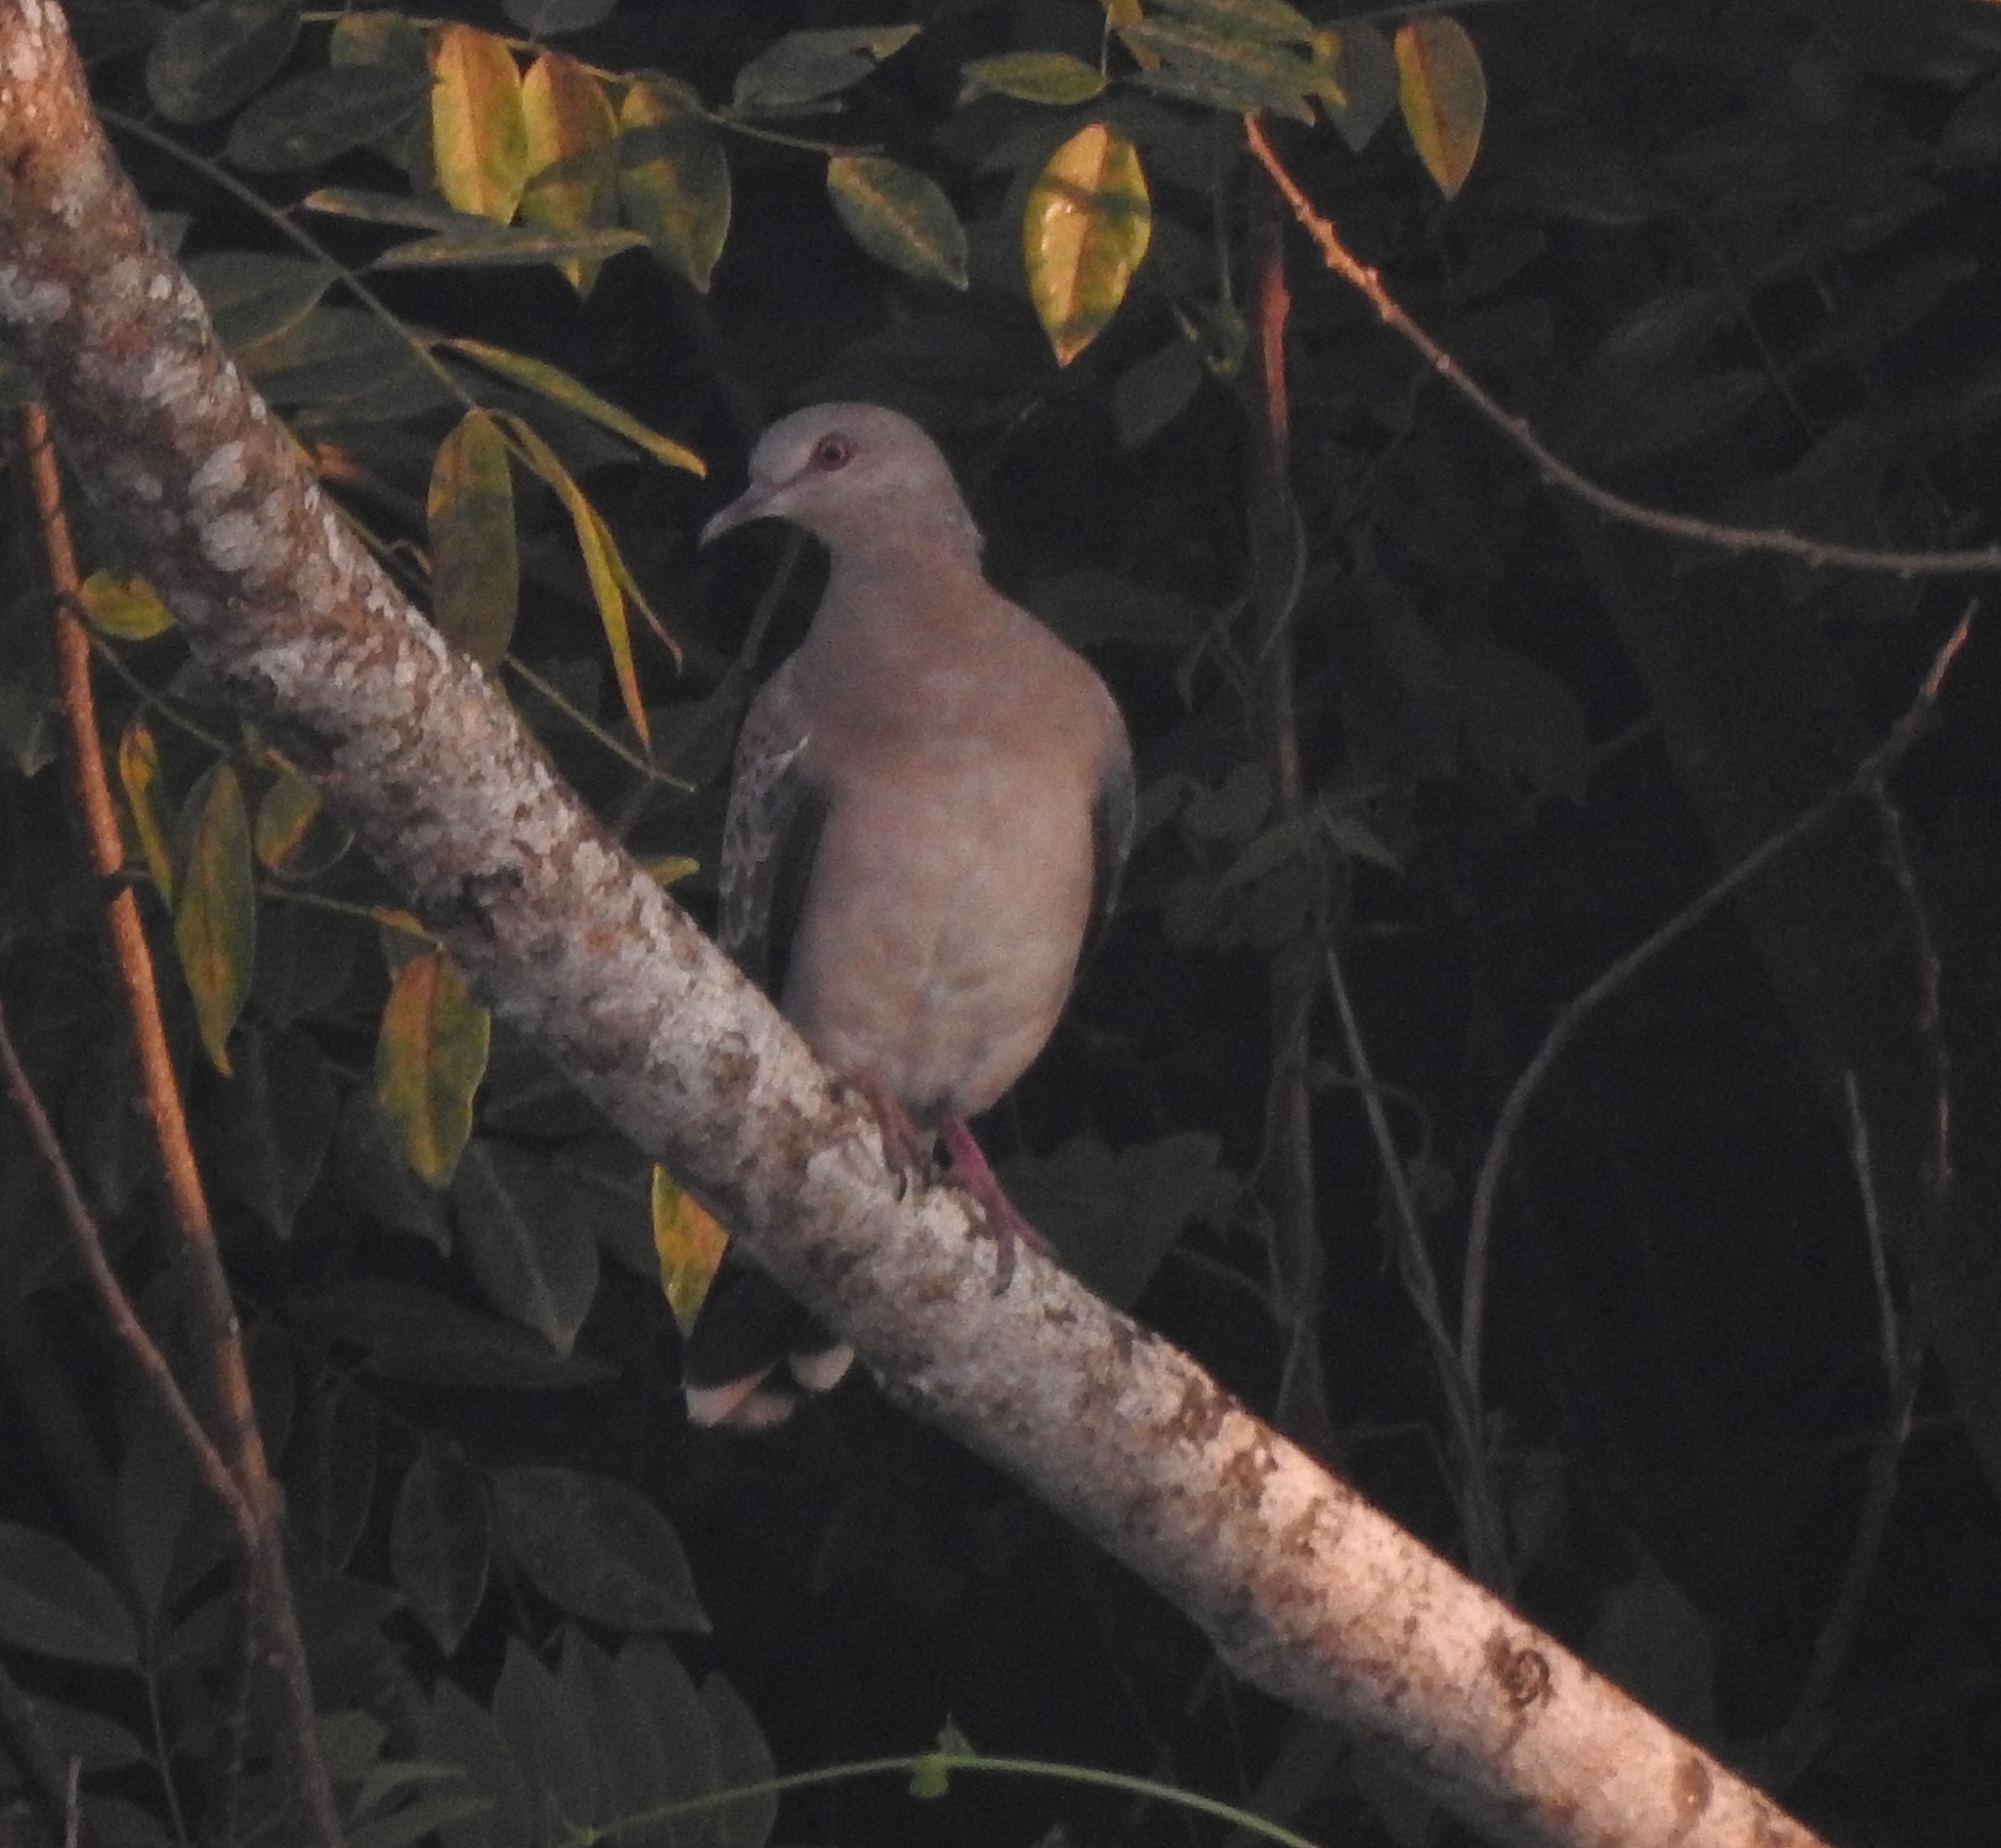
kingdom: Animalia
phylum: Chordata
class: Aves
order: Columbiformes
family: Columbidae
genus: Streptopelia
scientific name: Streptopelia orientalis
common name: Oriental turtle dove
